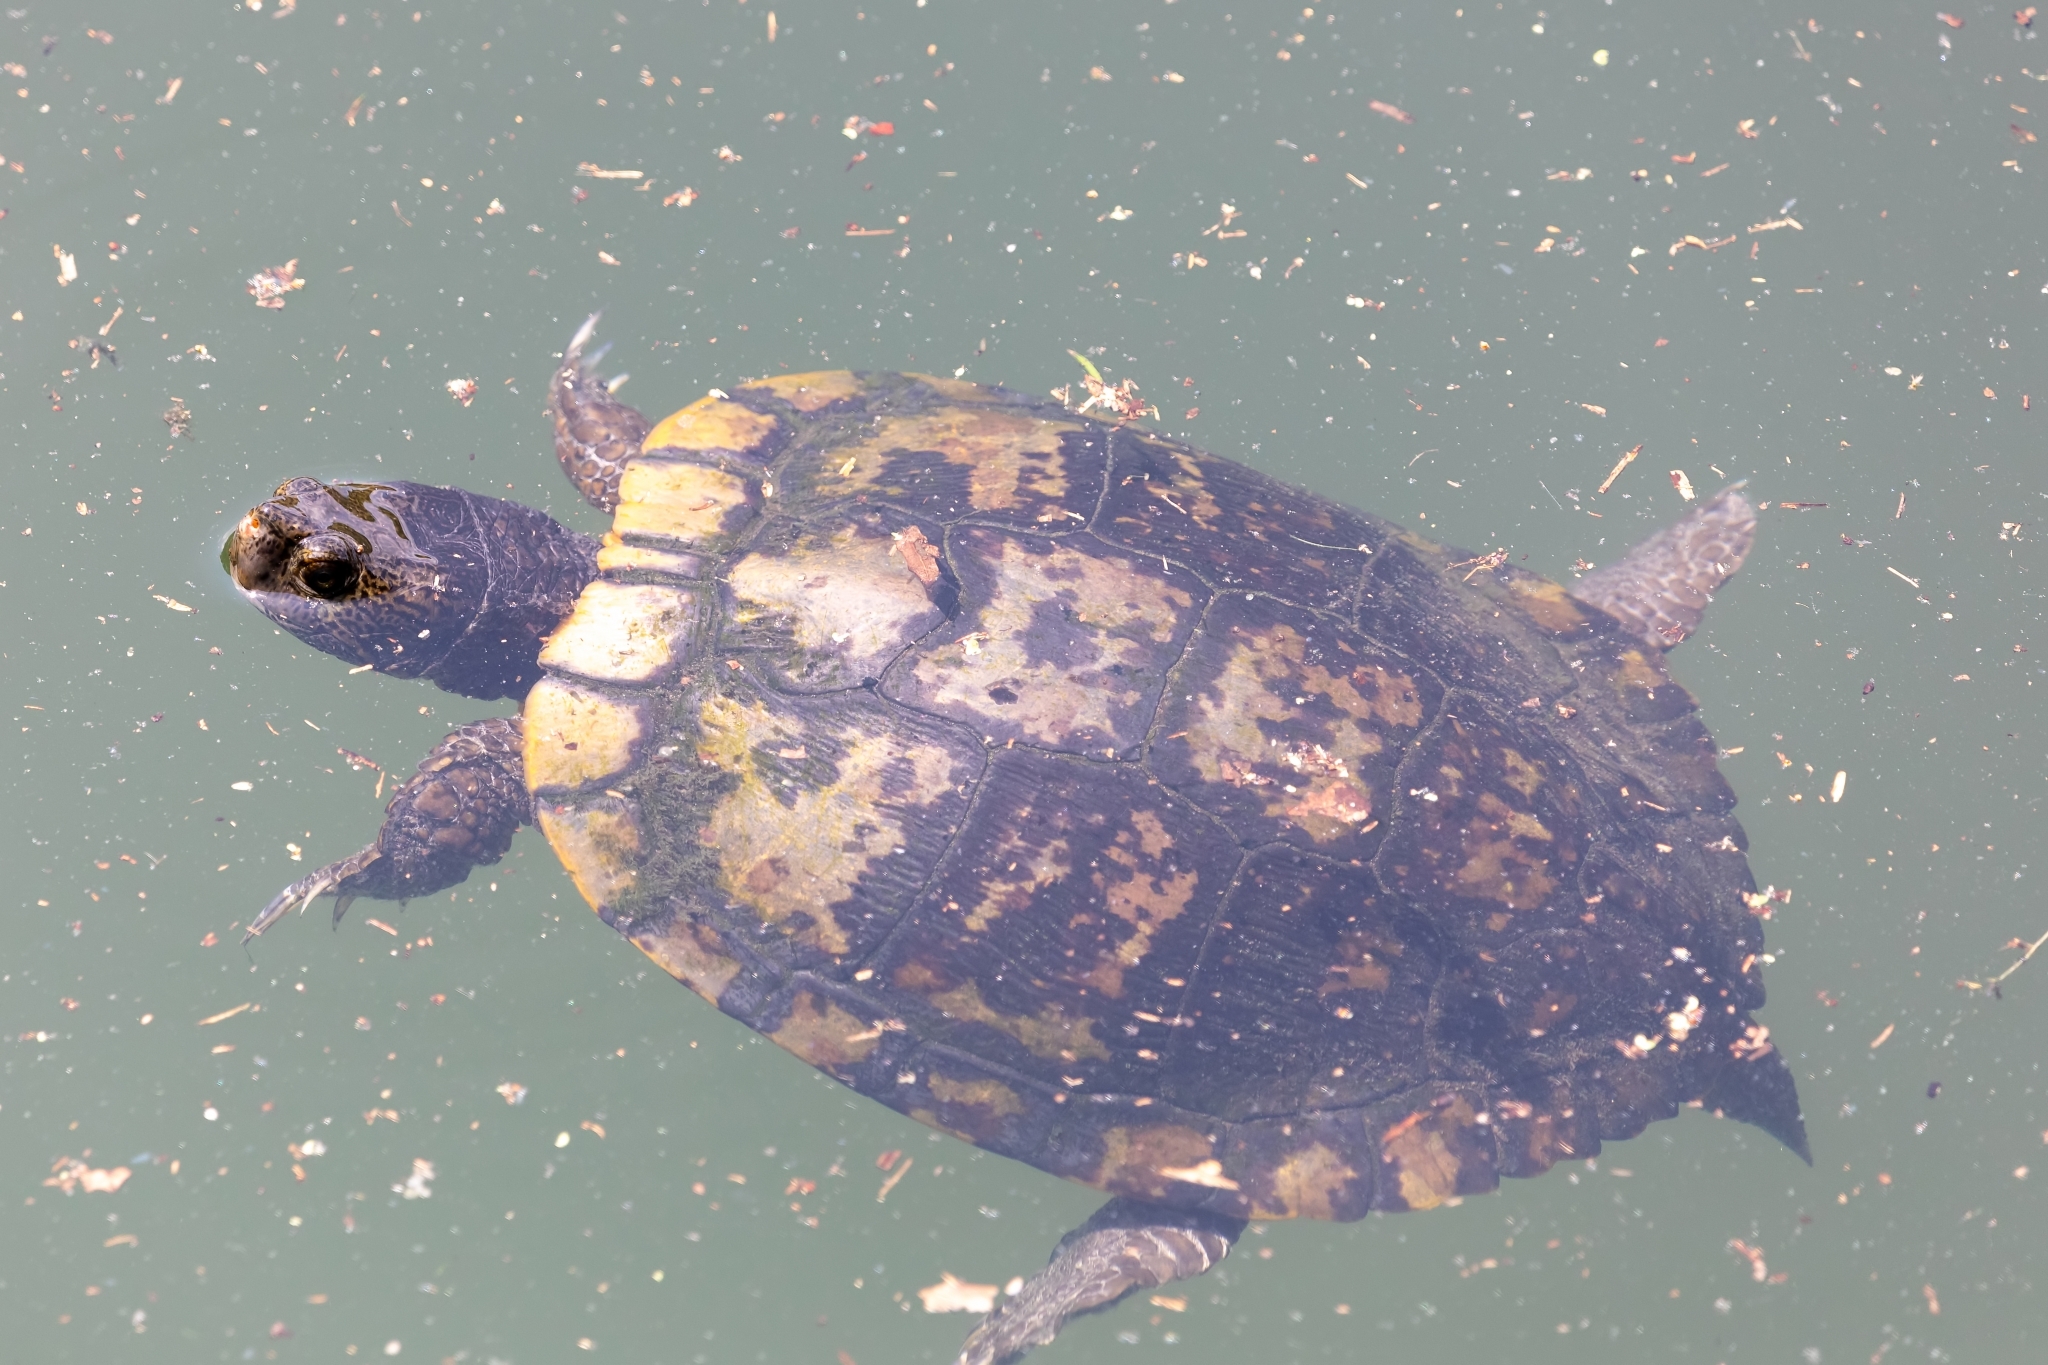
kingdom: Animalia
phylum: Chordata
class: Testudines
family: Emydidae
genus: Trachemys
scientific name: Trachemys scripta
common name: Slider
